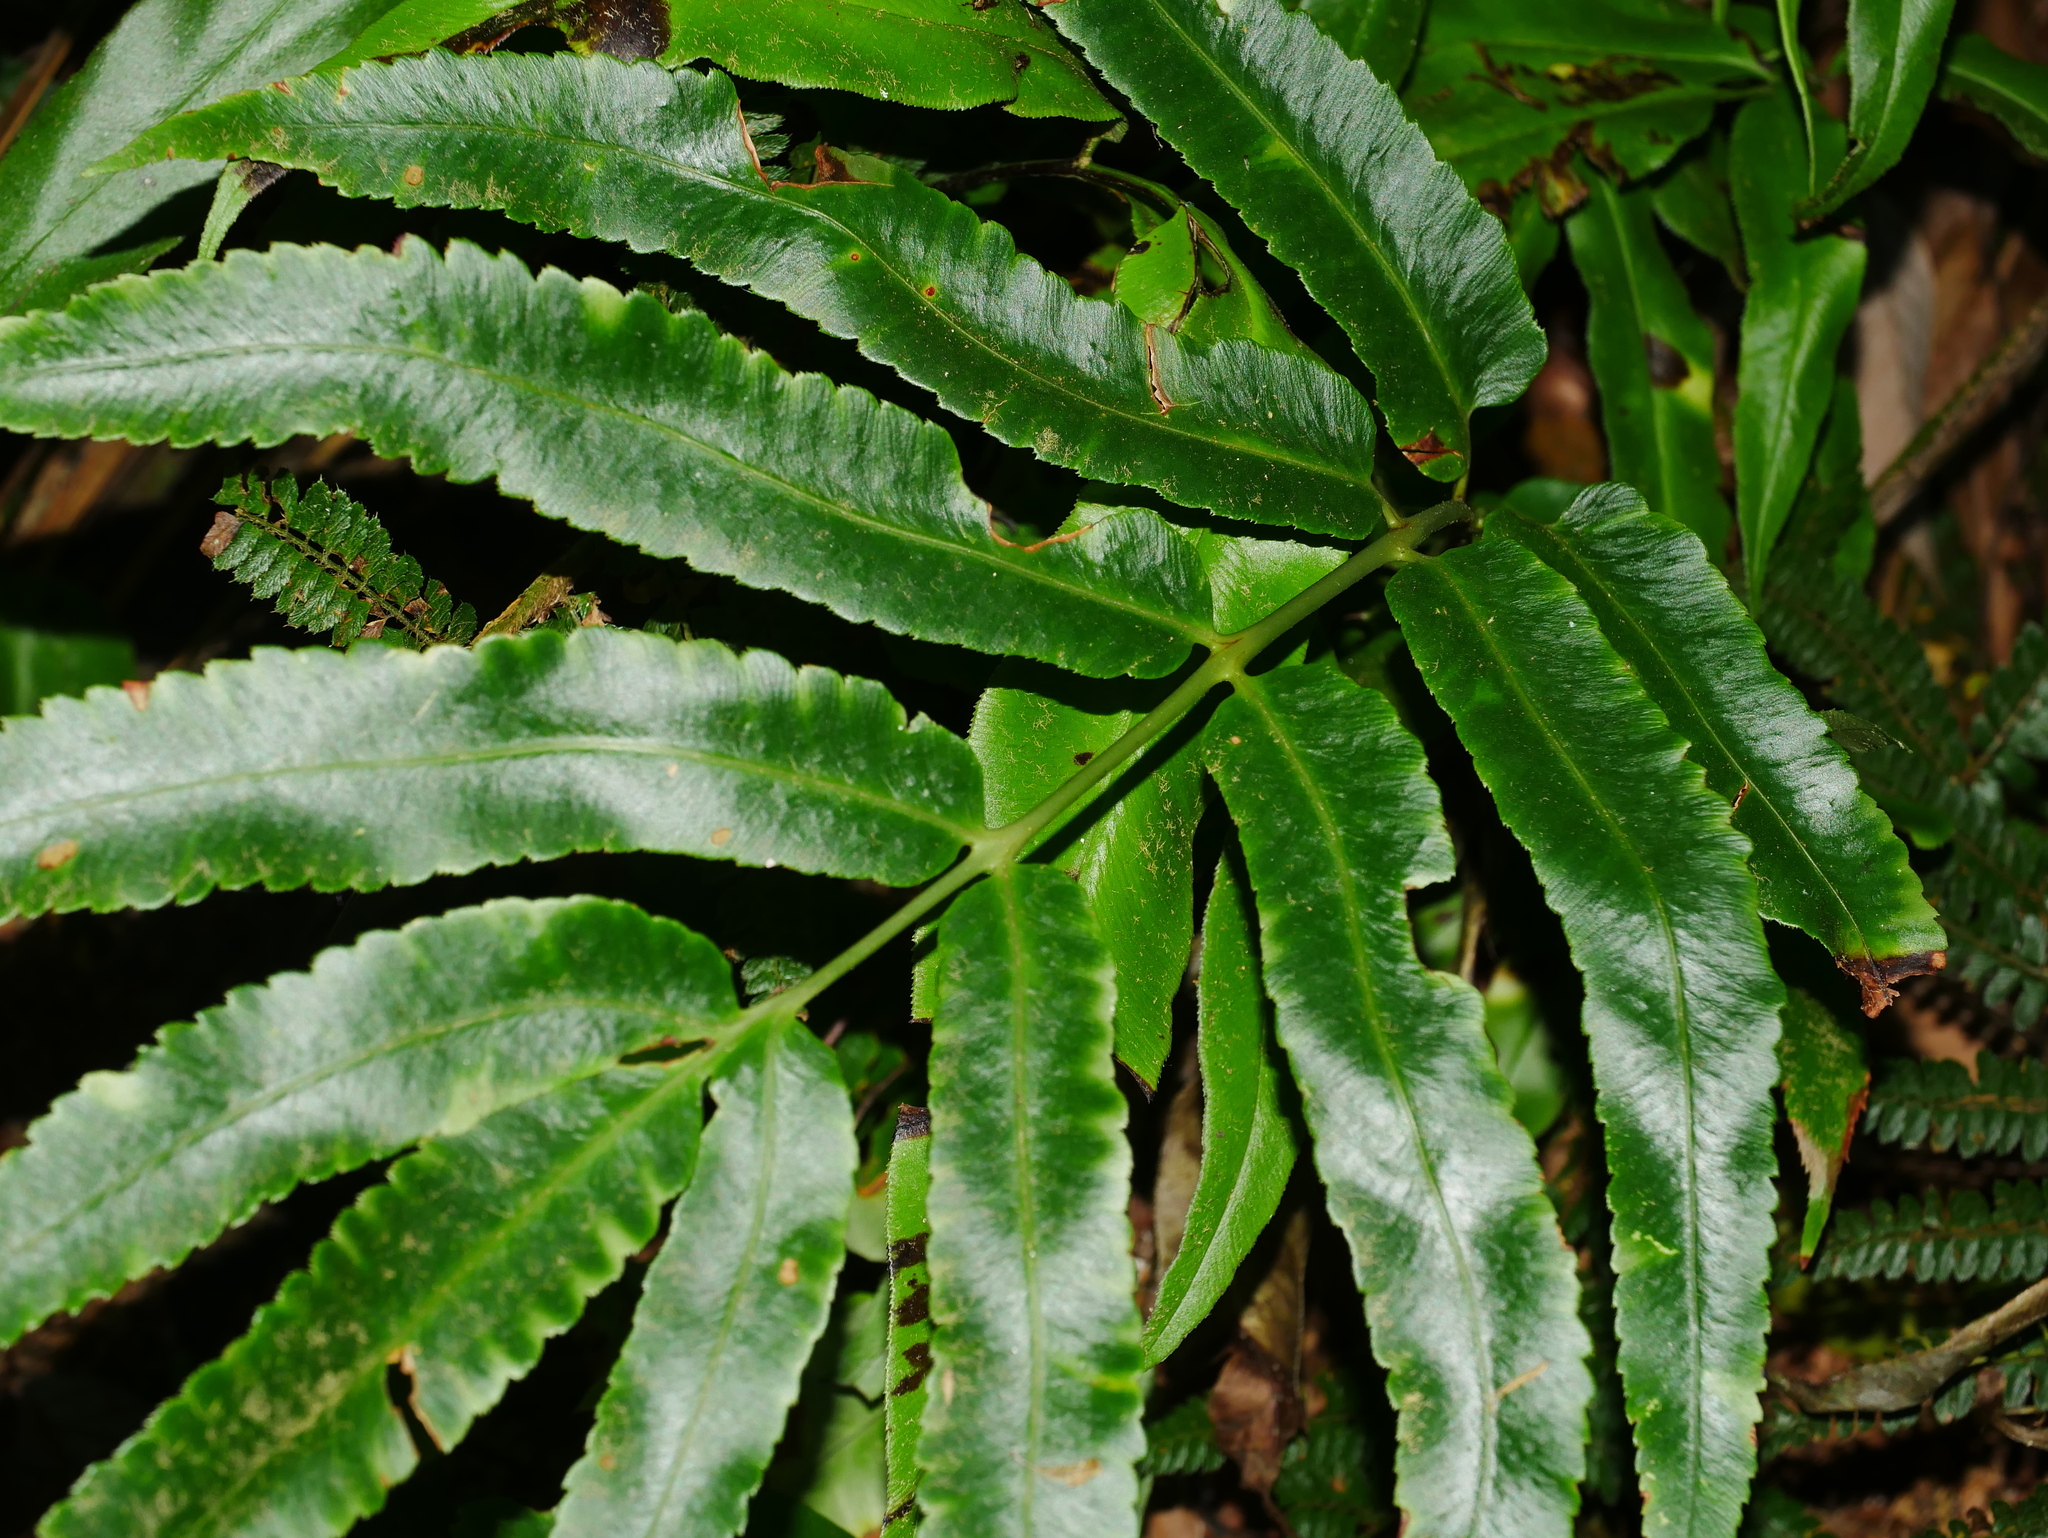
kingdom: Plantae
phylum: Tracheophyta
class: Polypodiopsida
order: Polypodiales
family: Dryopteridaceae
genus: Dryopteris
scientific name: Dryopteris enneaphylla
